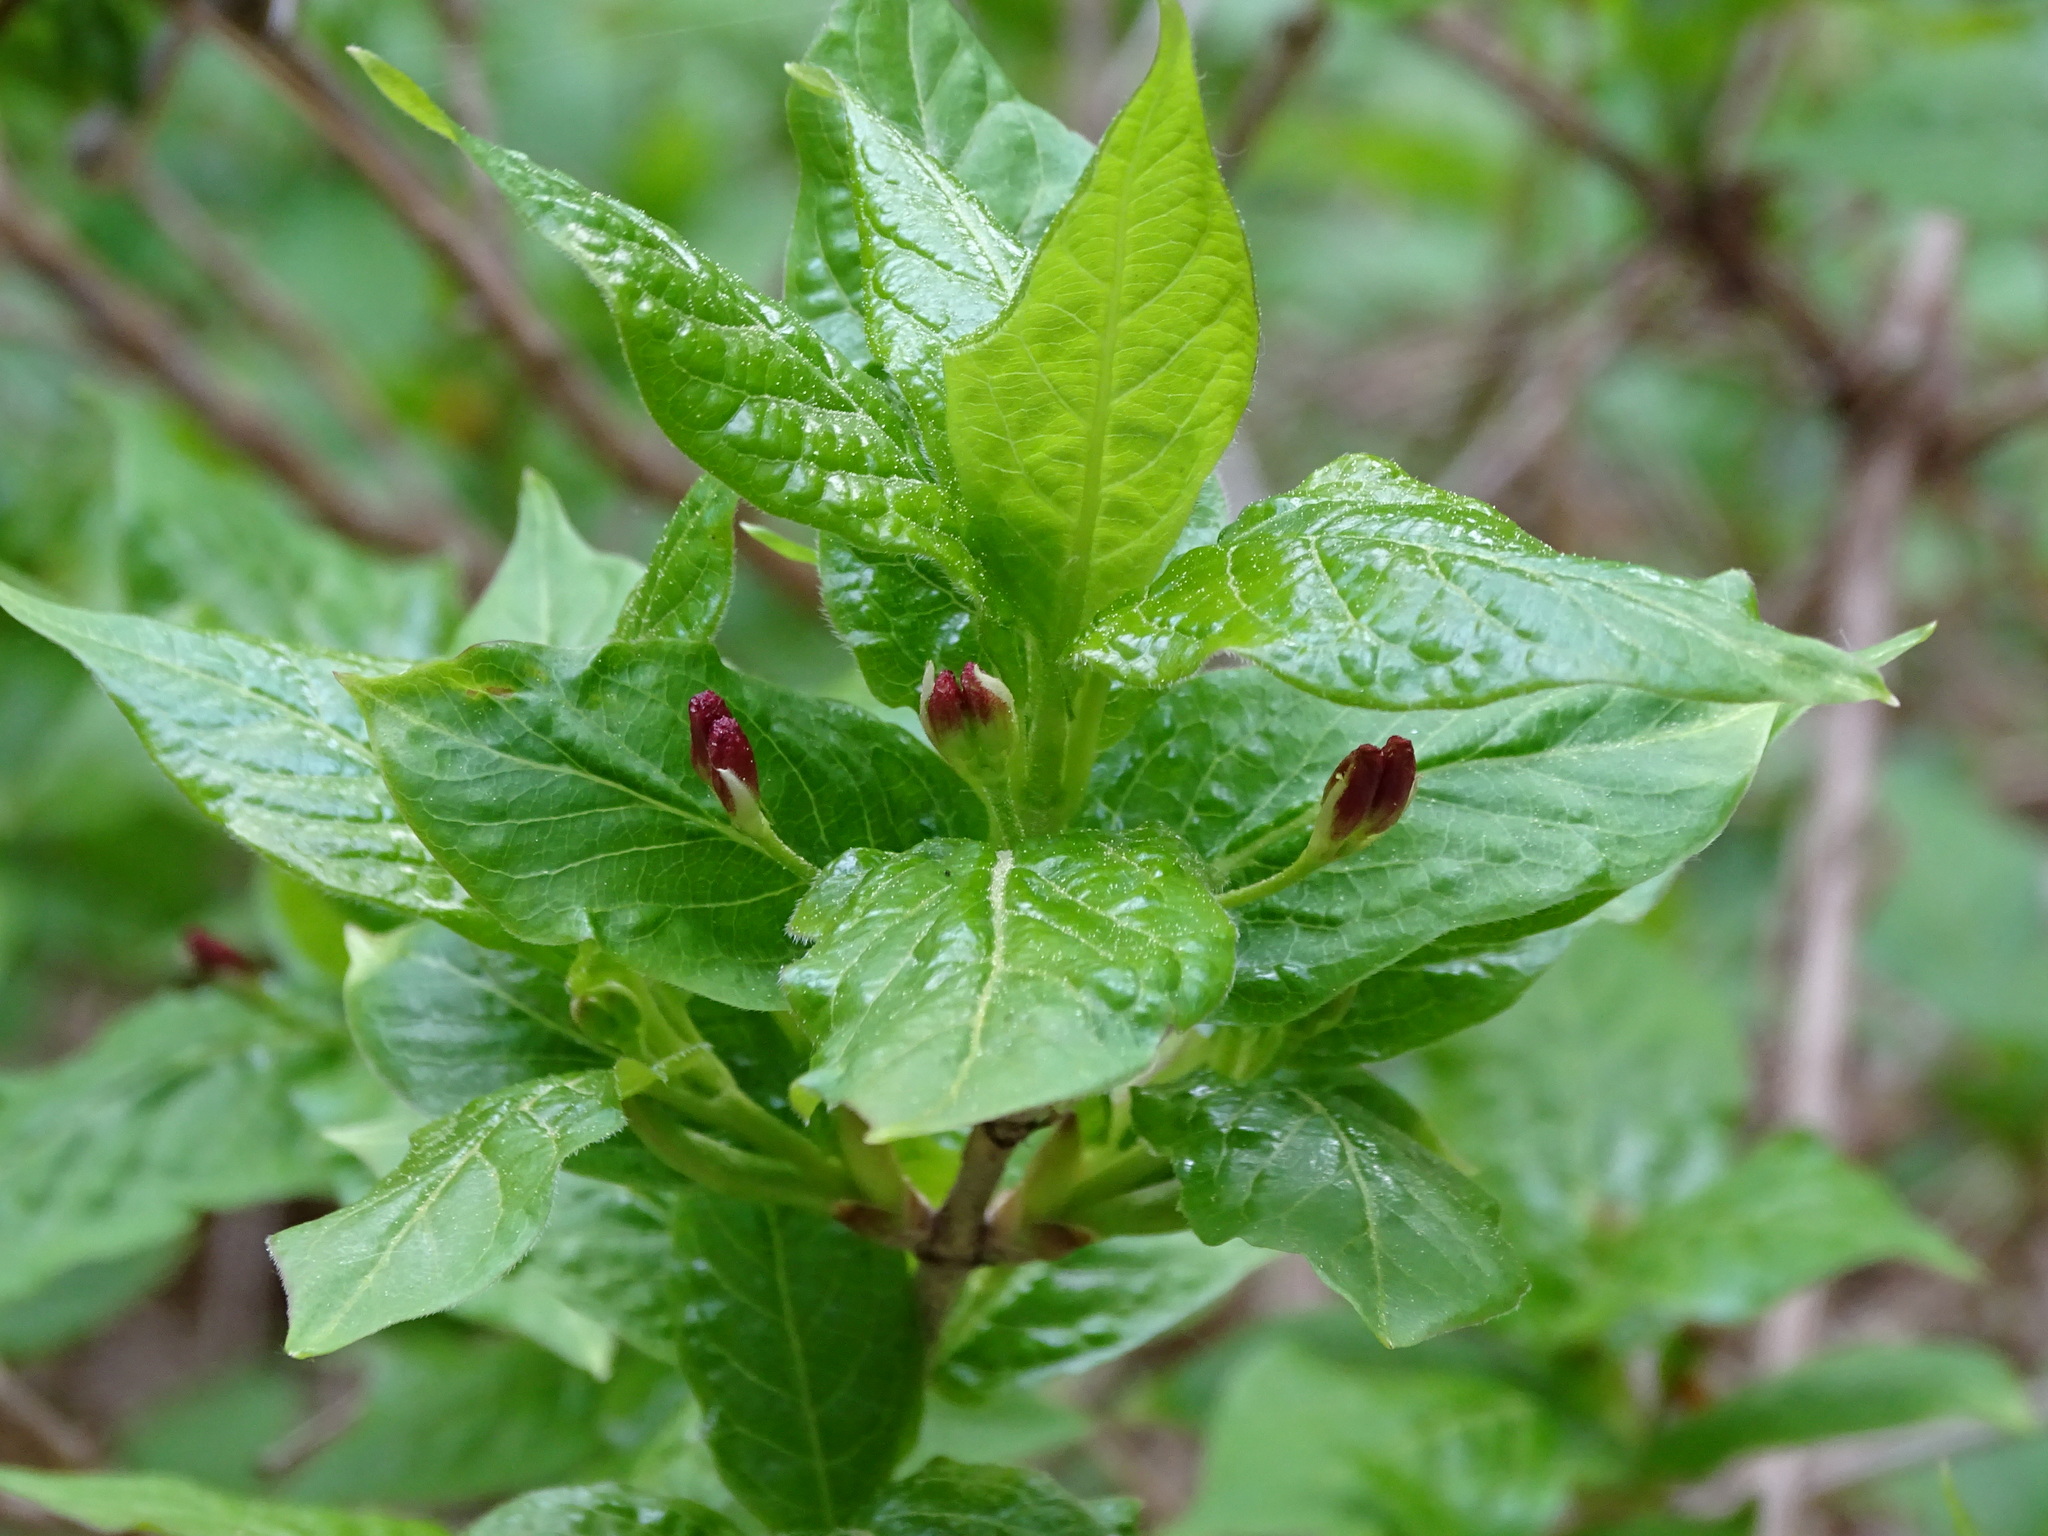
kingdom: Plantae
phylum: Tracheophyta
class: Magnoliopsida
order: Dipsacales
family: Caprifoliaceae
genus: Lonicera
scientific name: Lonicera alpigena
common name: Alpine honeysuckle
